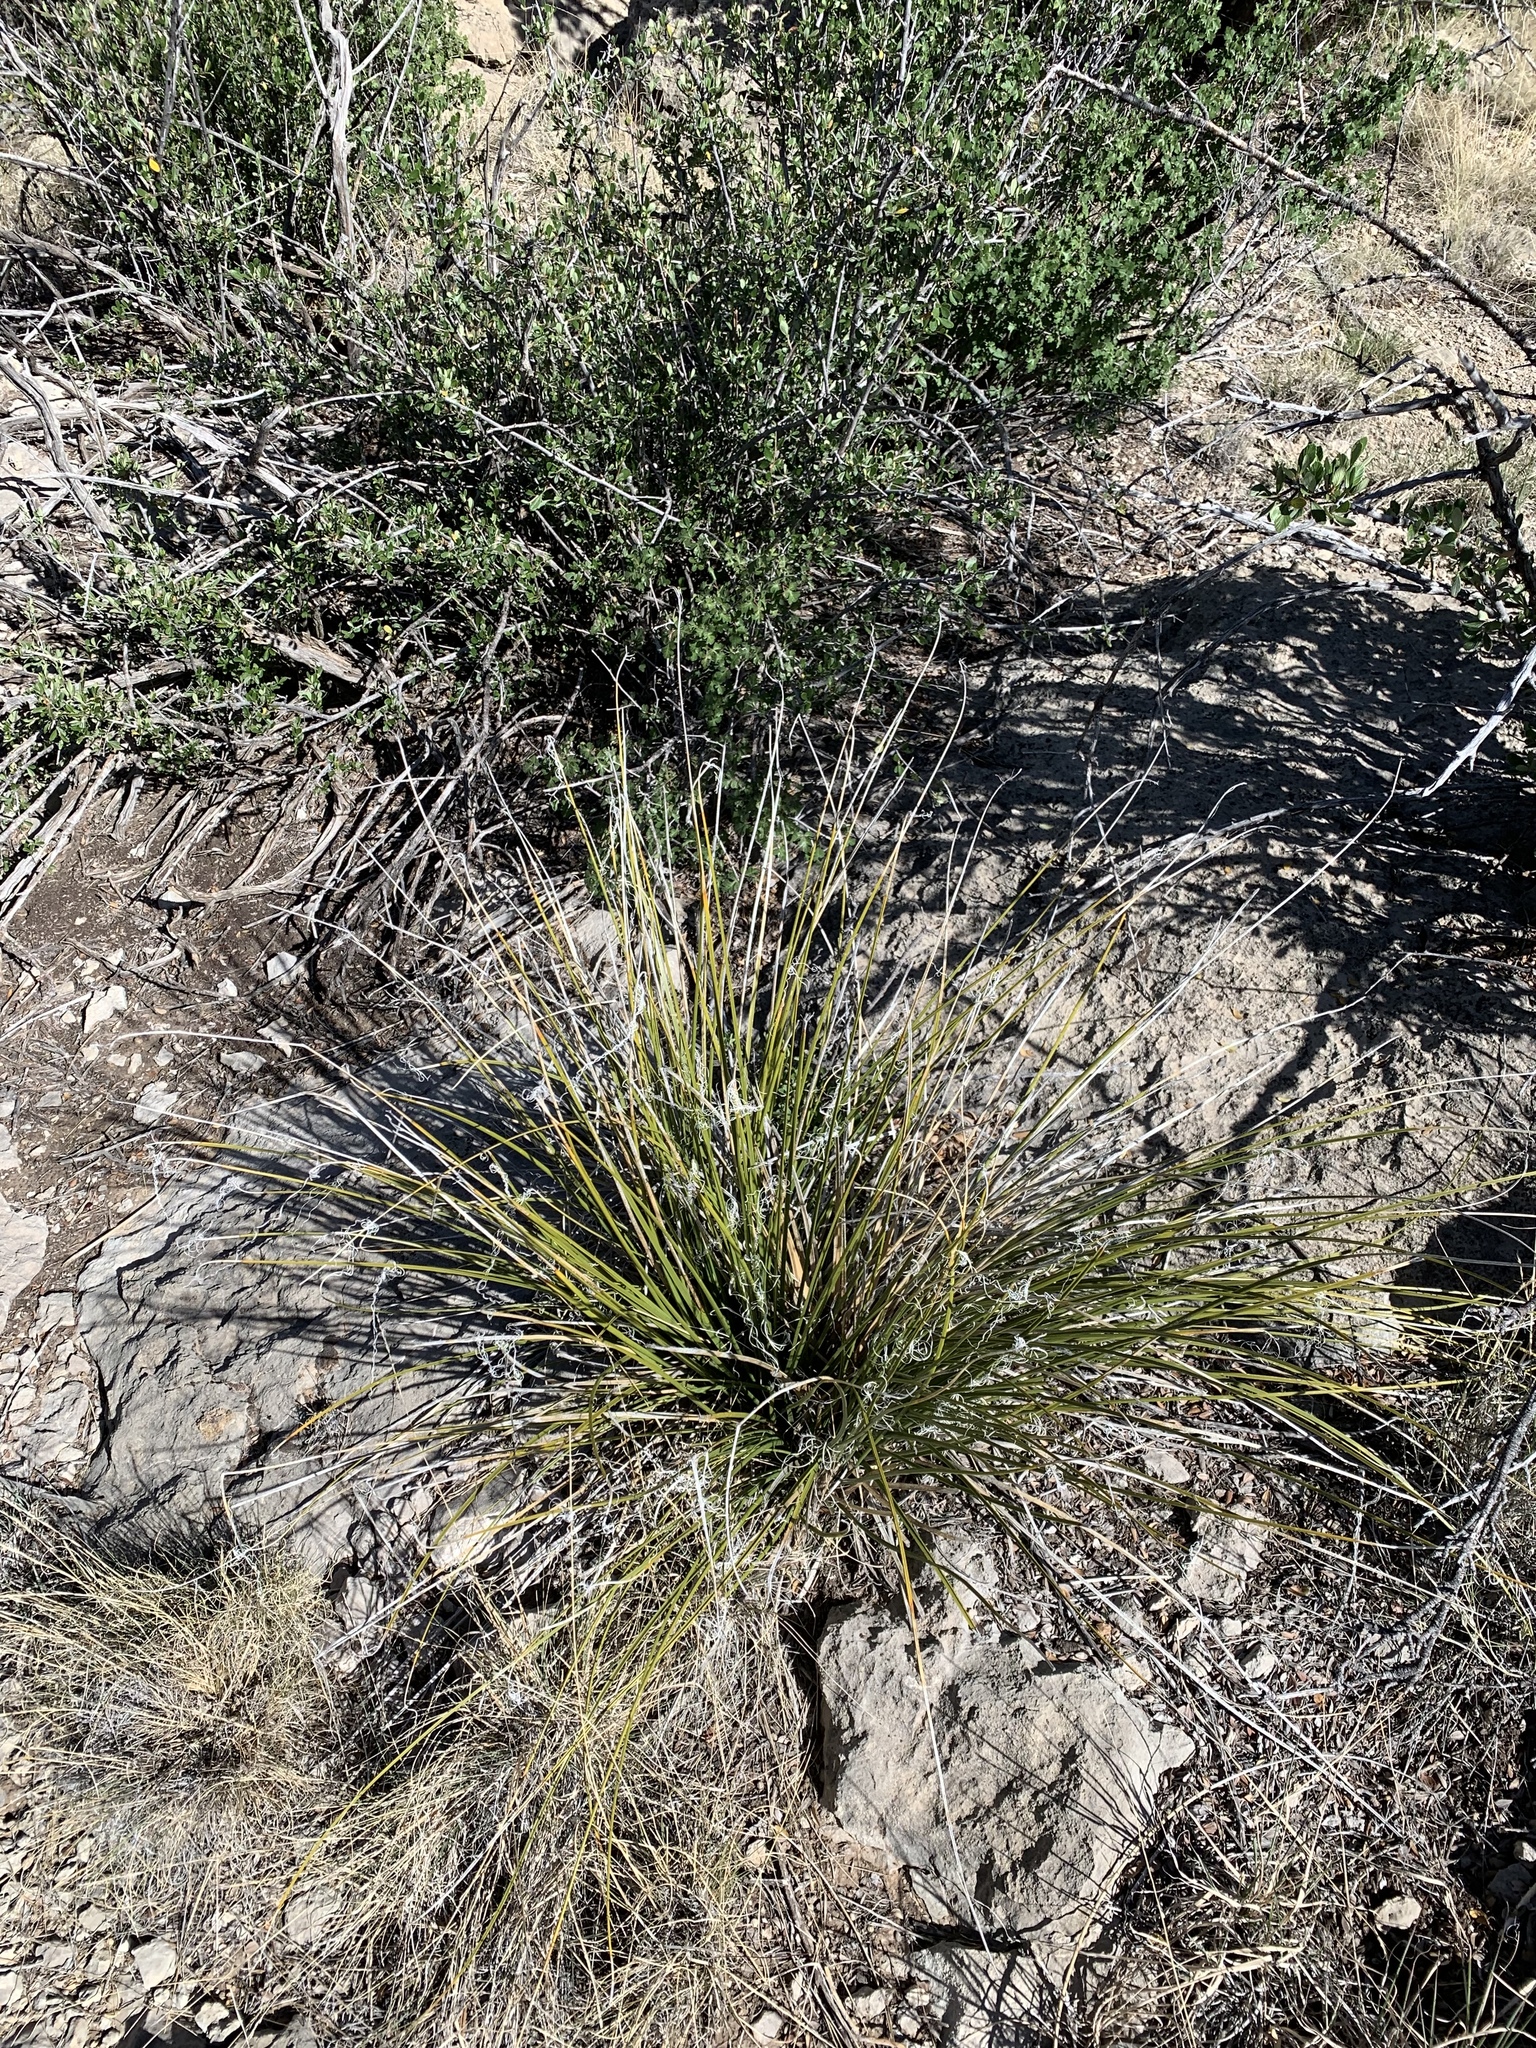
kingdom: Plantae
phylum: Tracheophyta
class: Liliopsida
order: Asparagales
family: Asparagaceae
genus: Nolina
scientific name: Nolina microcarpa
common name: Bear-grass
